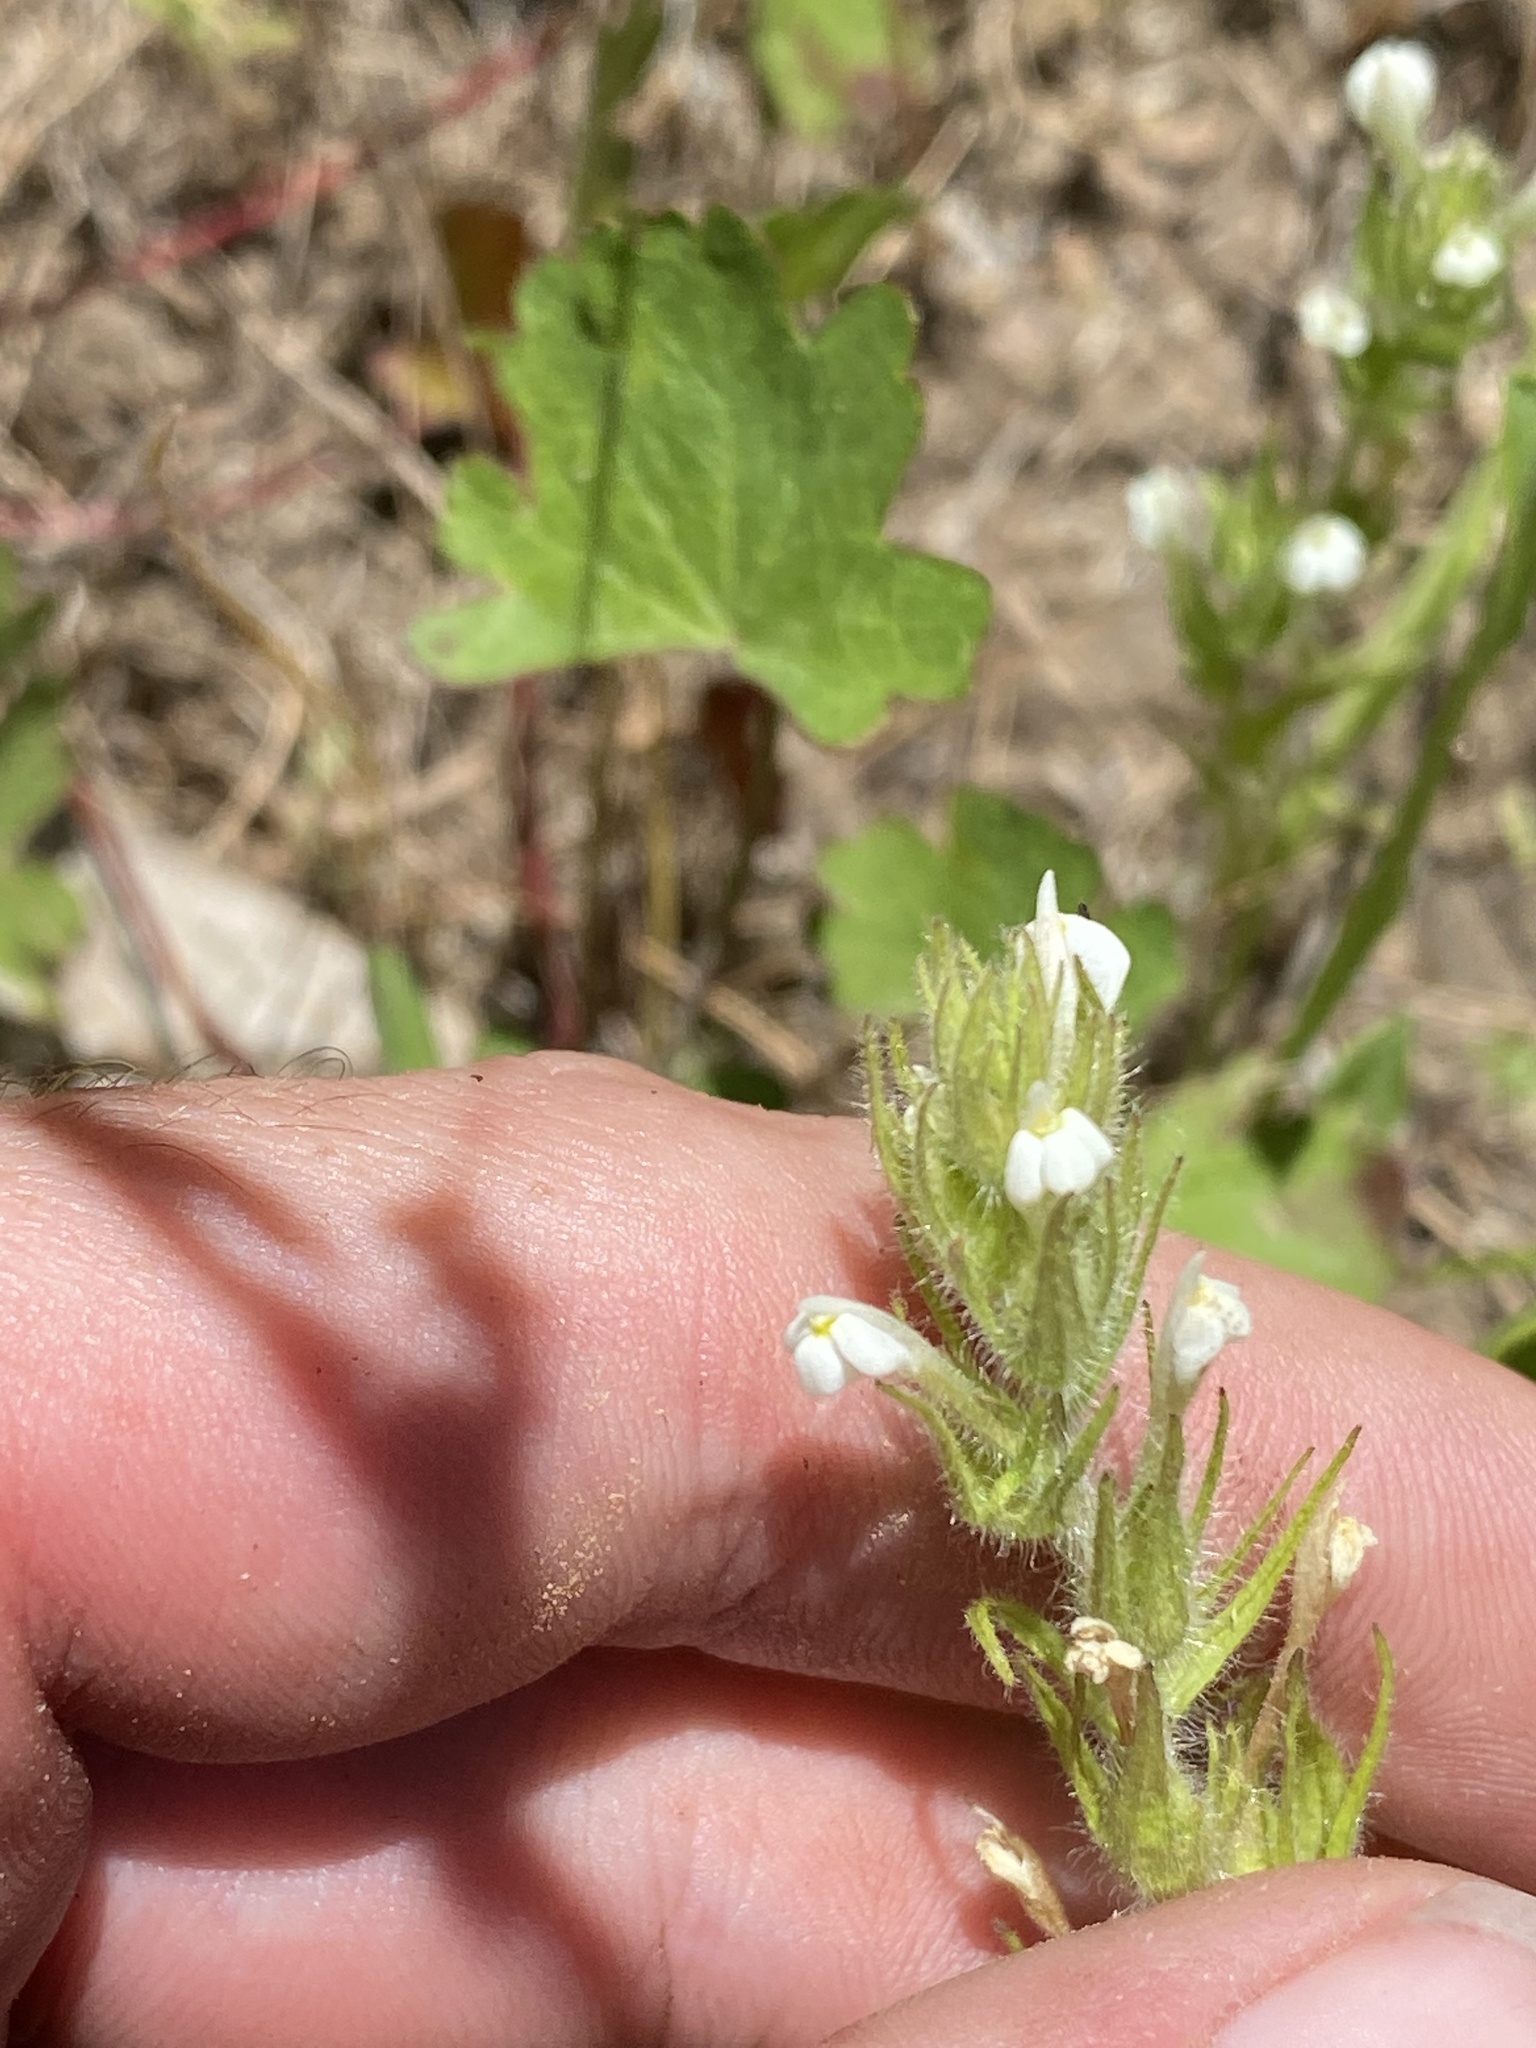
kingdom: Plantae
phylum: Tracheophyta
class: Magnoliopsida
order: Lamiales
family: Orobanchaceae
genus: Castilleja
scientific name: Castilleja tenuis
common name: Hairy indian paintbrush
